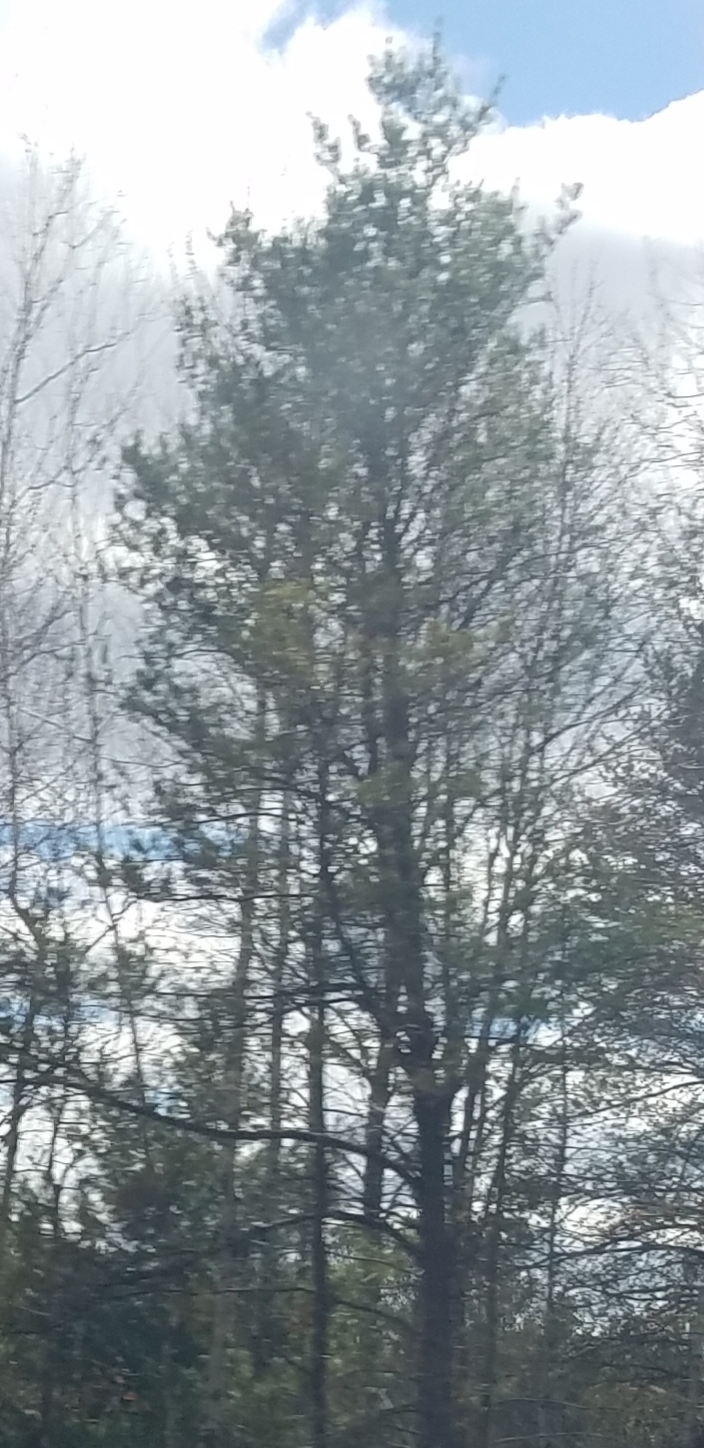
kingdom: Plantae
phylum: Tracheophyta
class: Pinopsida
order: Pinales
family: Pinaceae
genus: Pinus
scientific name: Pinus strobus
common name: Weymouth pine
